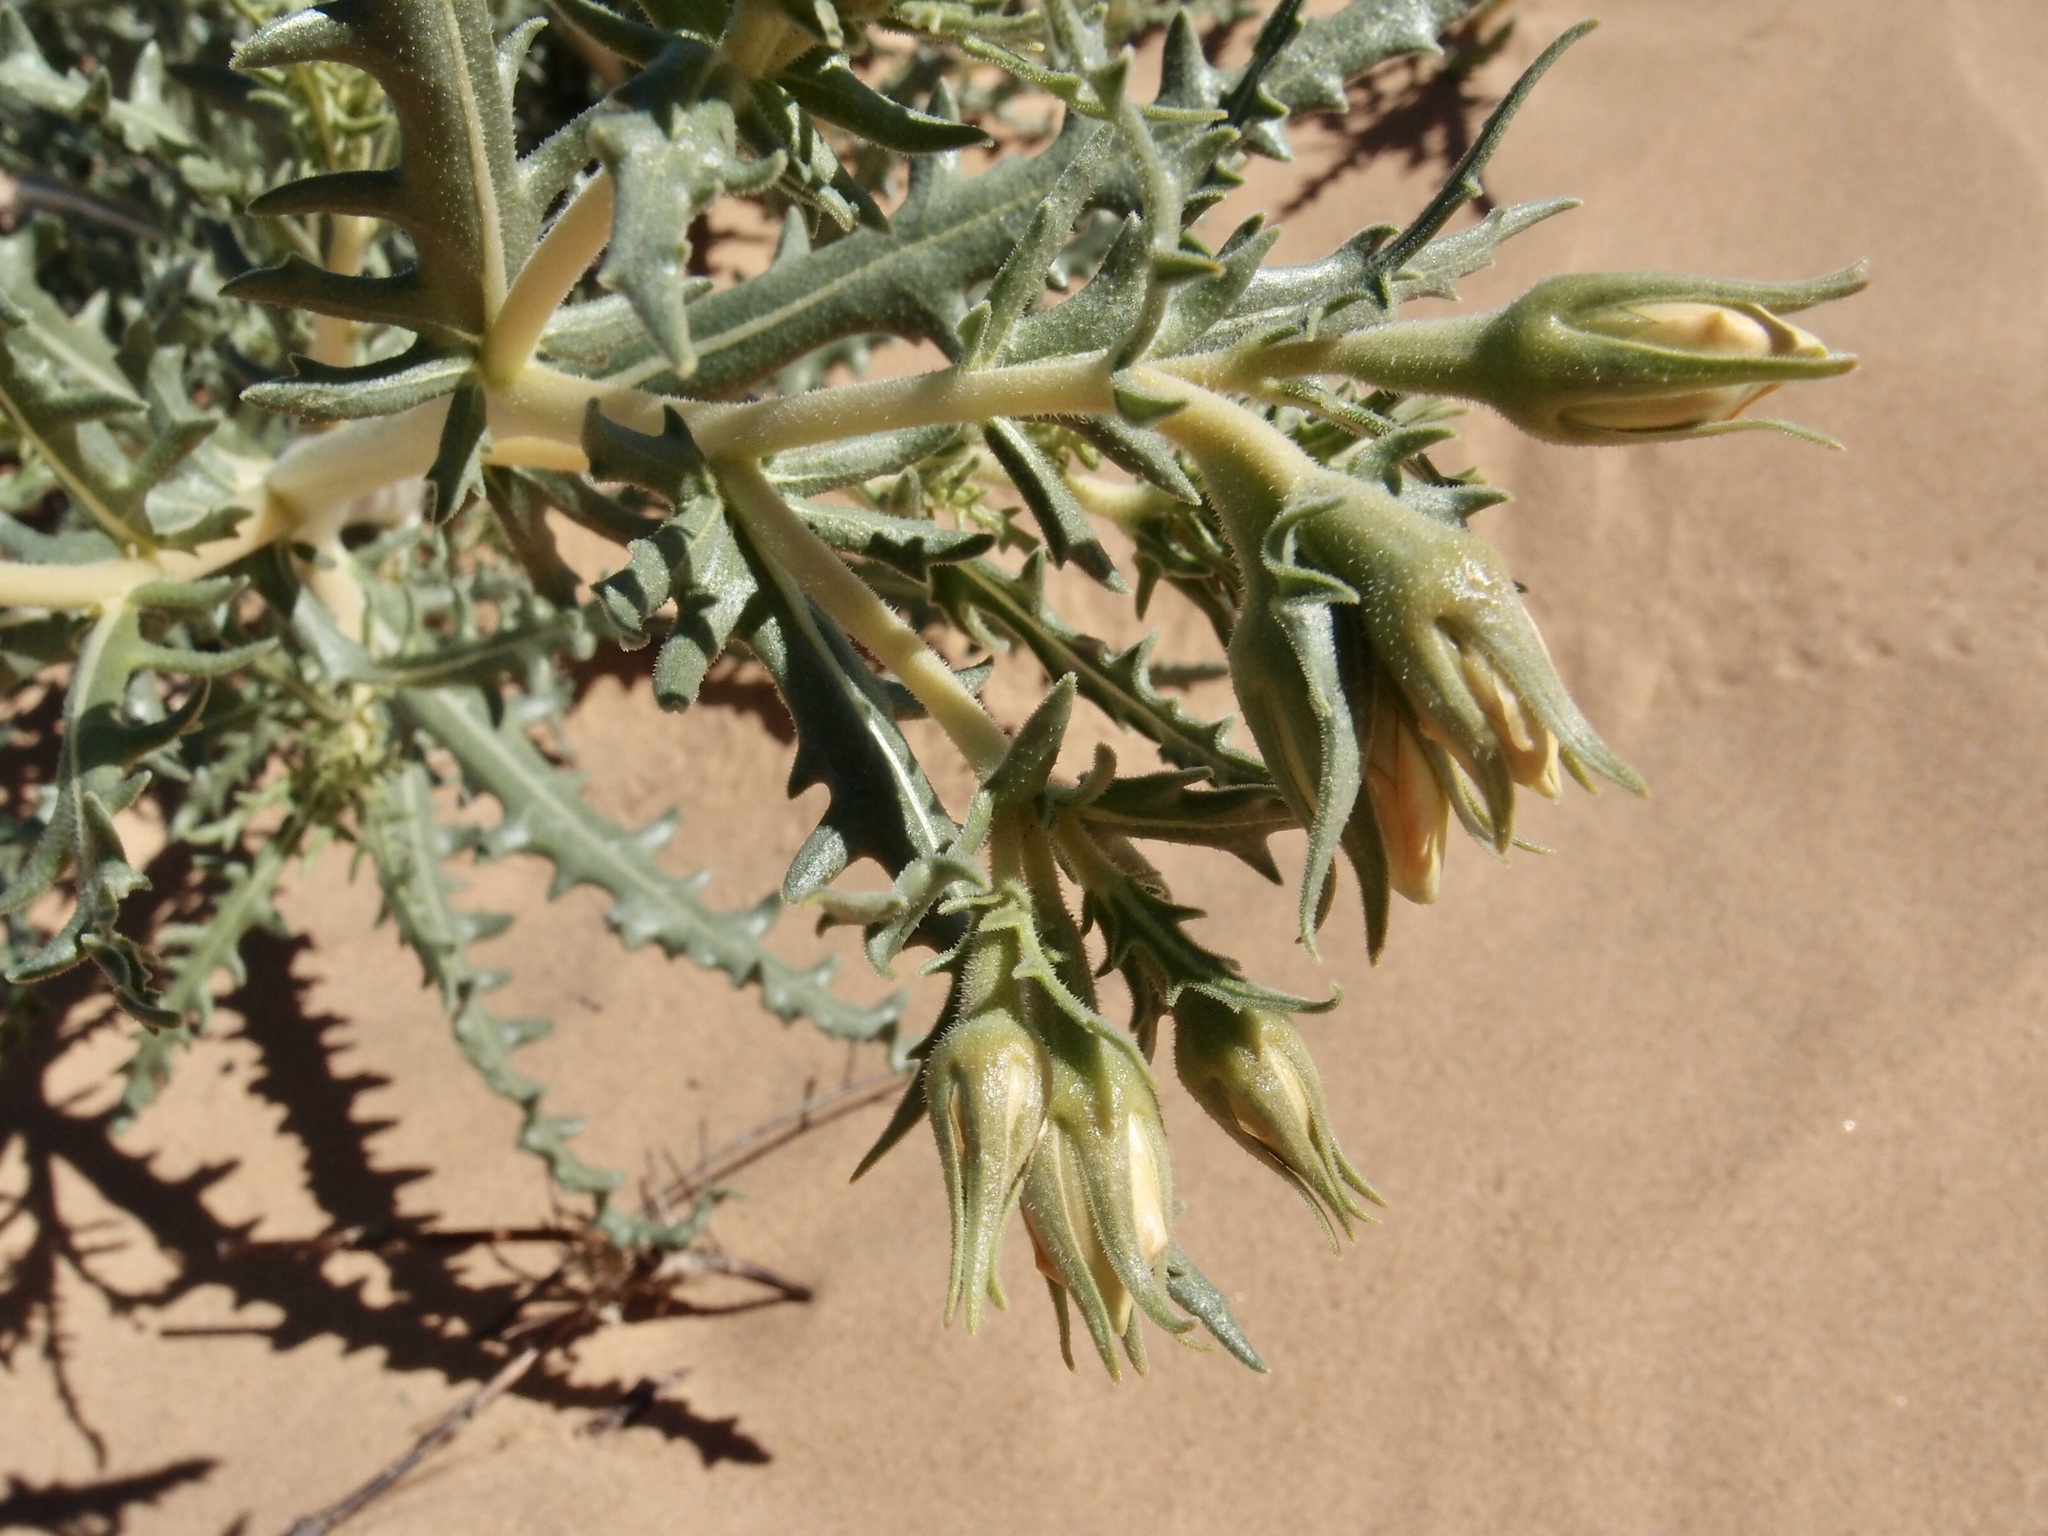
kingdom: Plantae
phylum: Tracheophyta
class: Magnoliopsida
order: Cornales
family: Loasaceae
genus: Mentzelia
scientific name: Mentzelia longiloba
